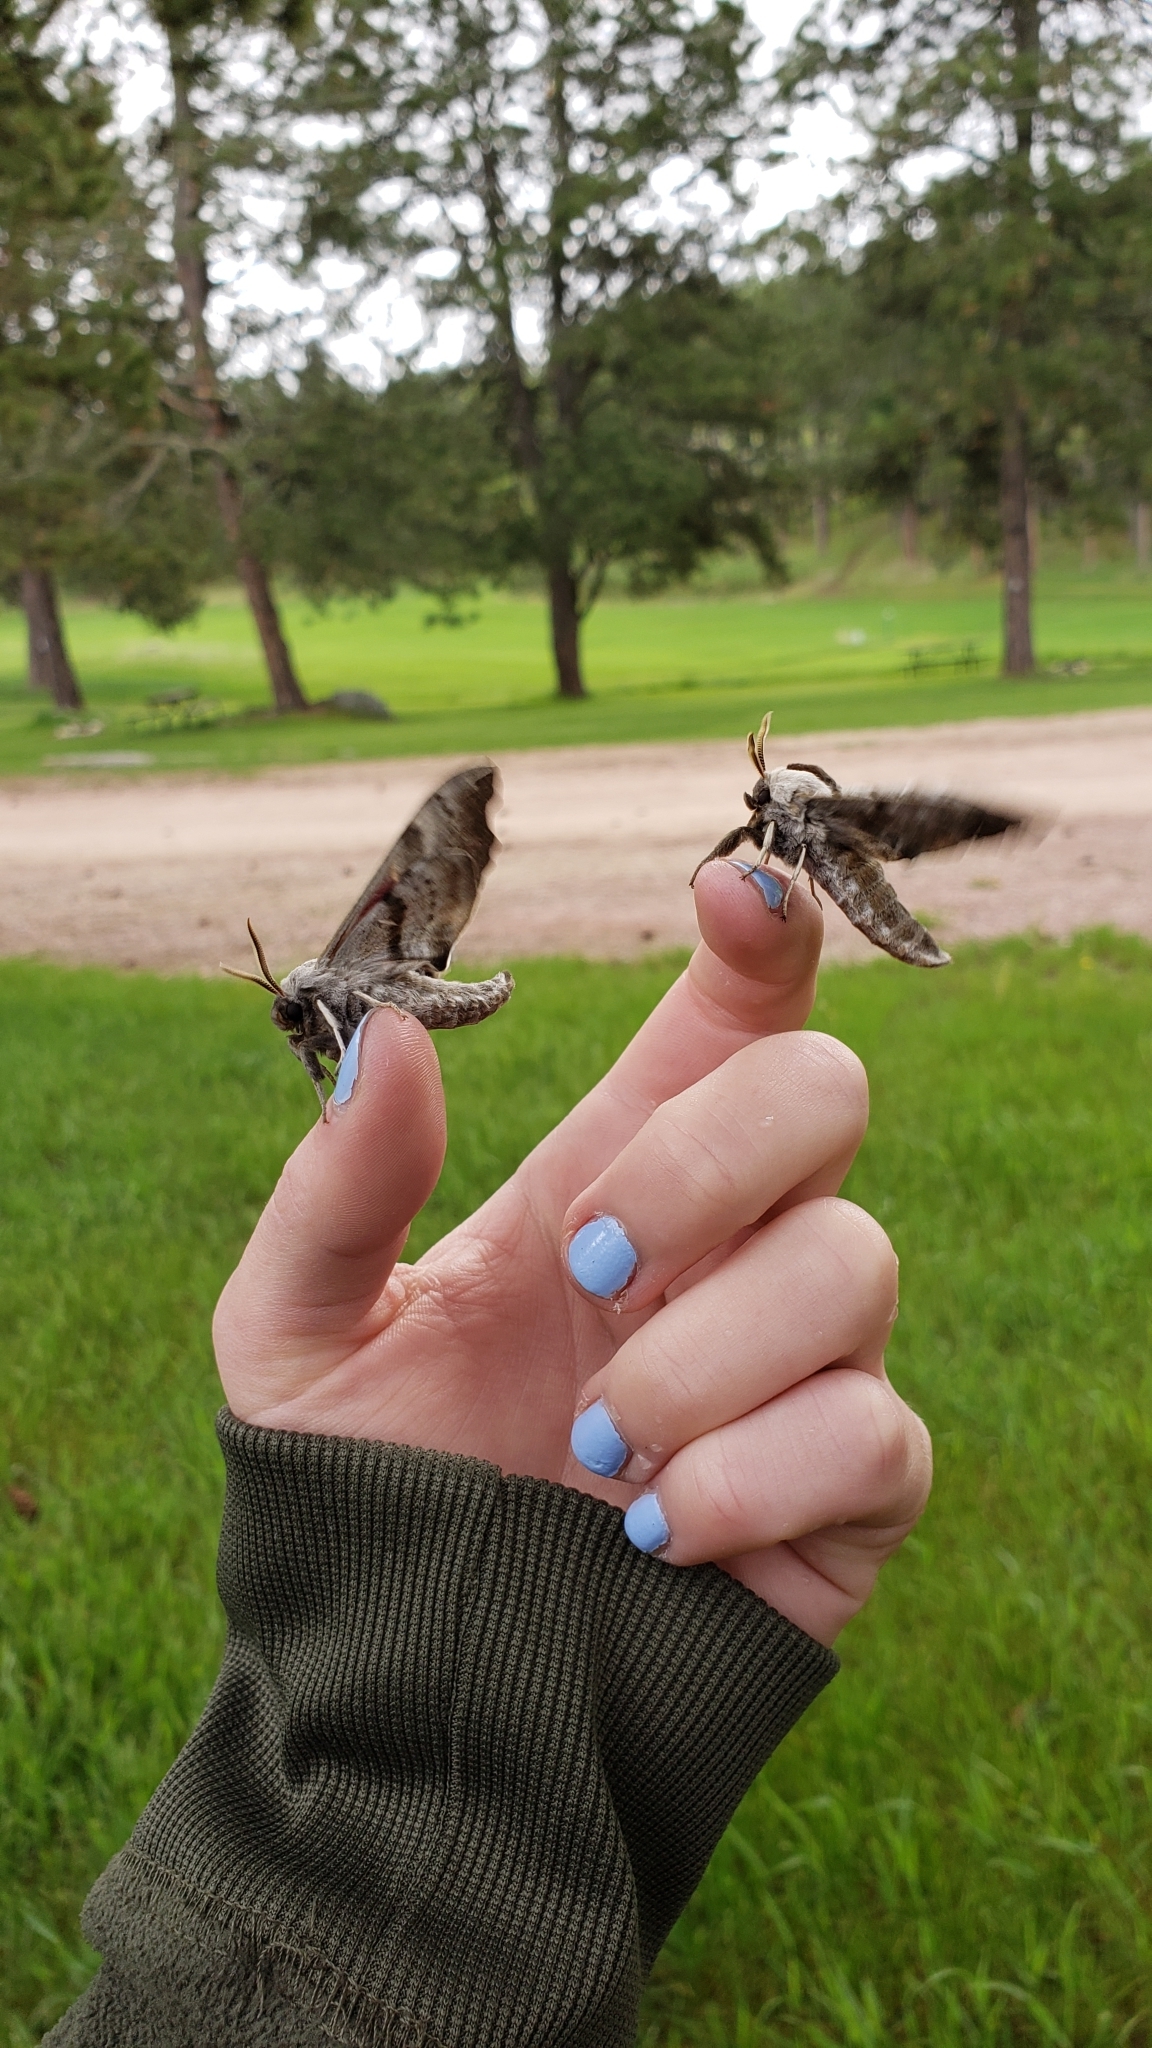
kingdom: Animalia
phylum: Arthropoda
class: Insecta
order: Lepidoptera
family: Sphingidae
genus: Smerinthus
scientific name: Smerinthus cerisyi
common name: Cerisy's sphinx moth
